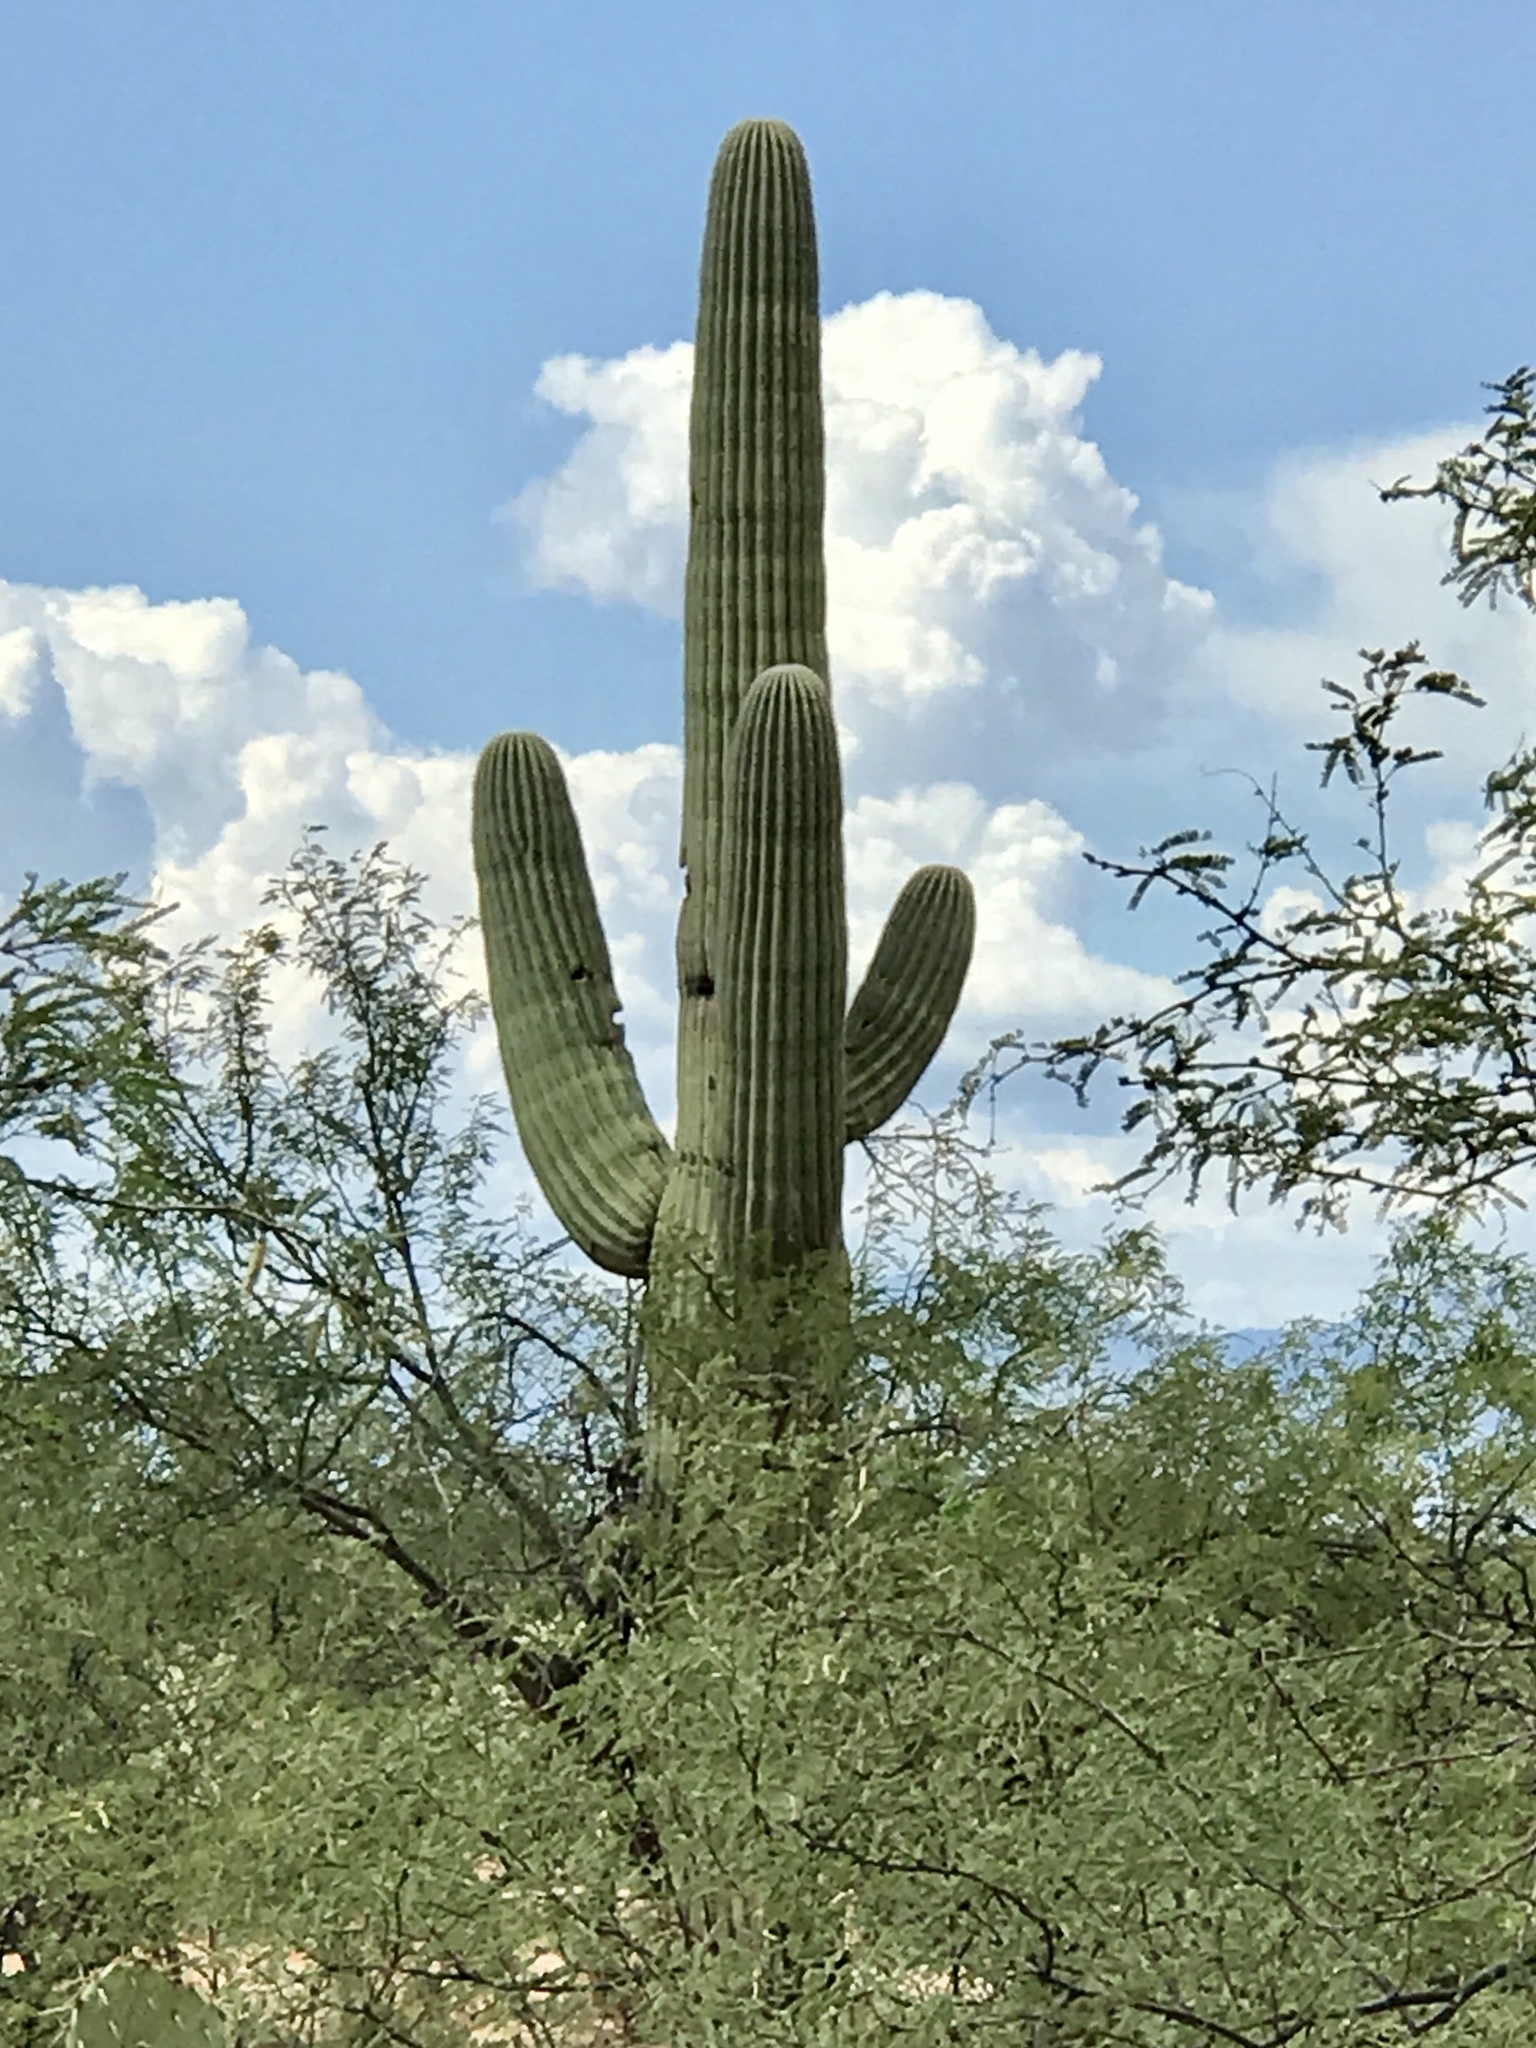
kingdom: Plantae
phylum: Tracheophyta
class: Magnoliopsida
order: Caryophyllales
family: Cactaceae
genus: Carnegiea
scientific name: Carnegiea gigantea
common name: Saguaro
